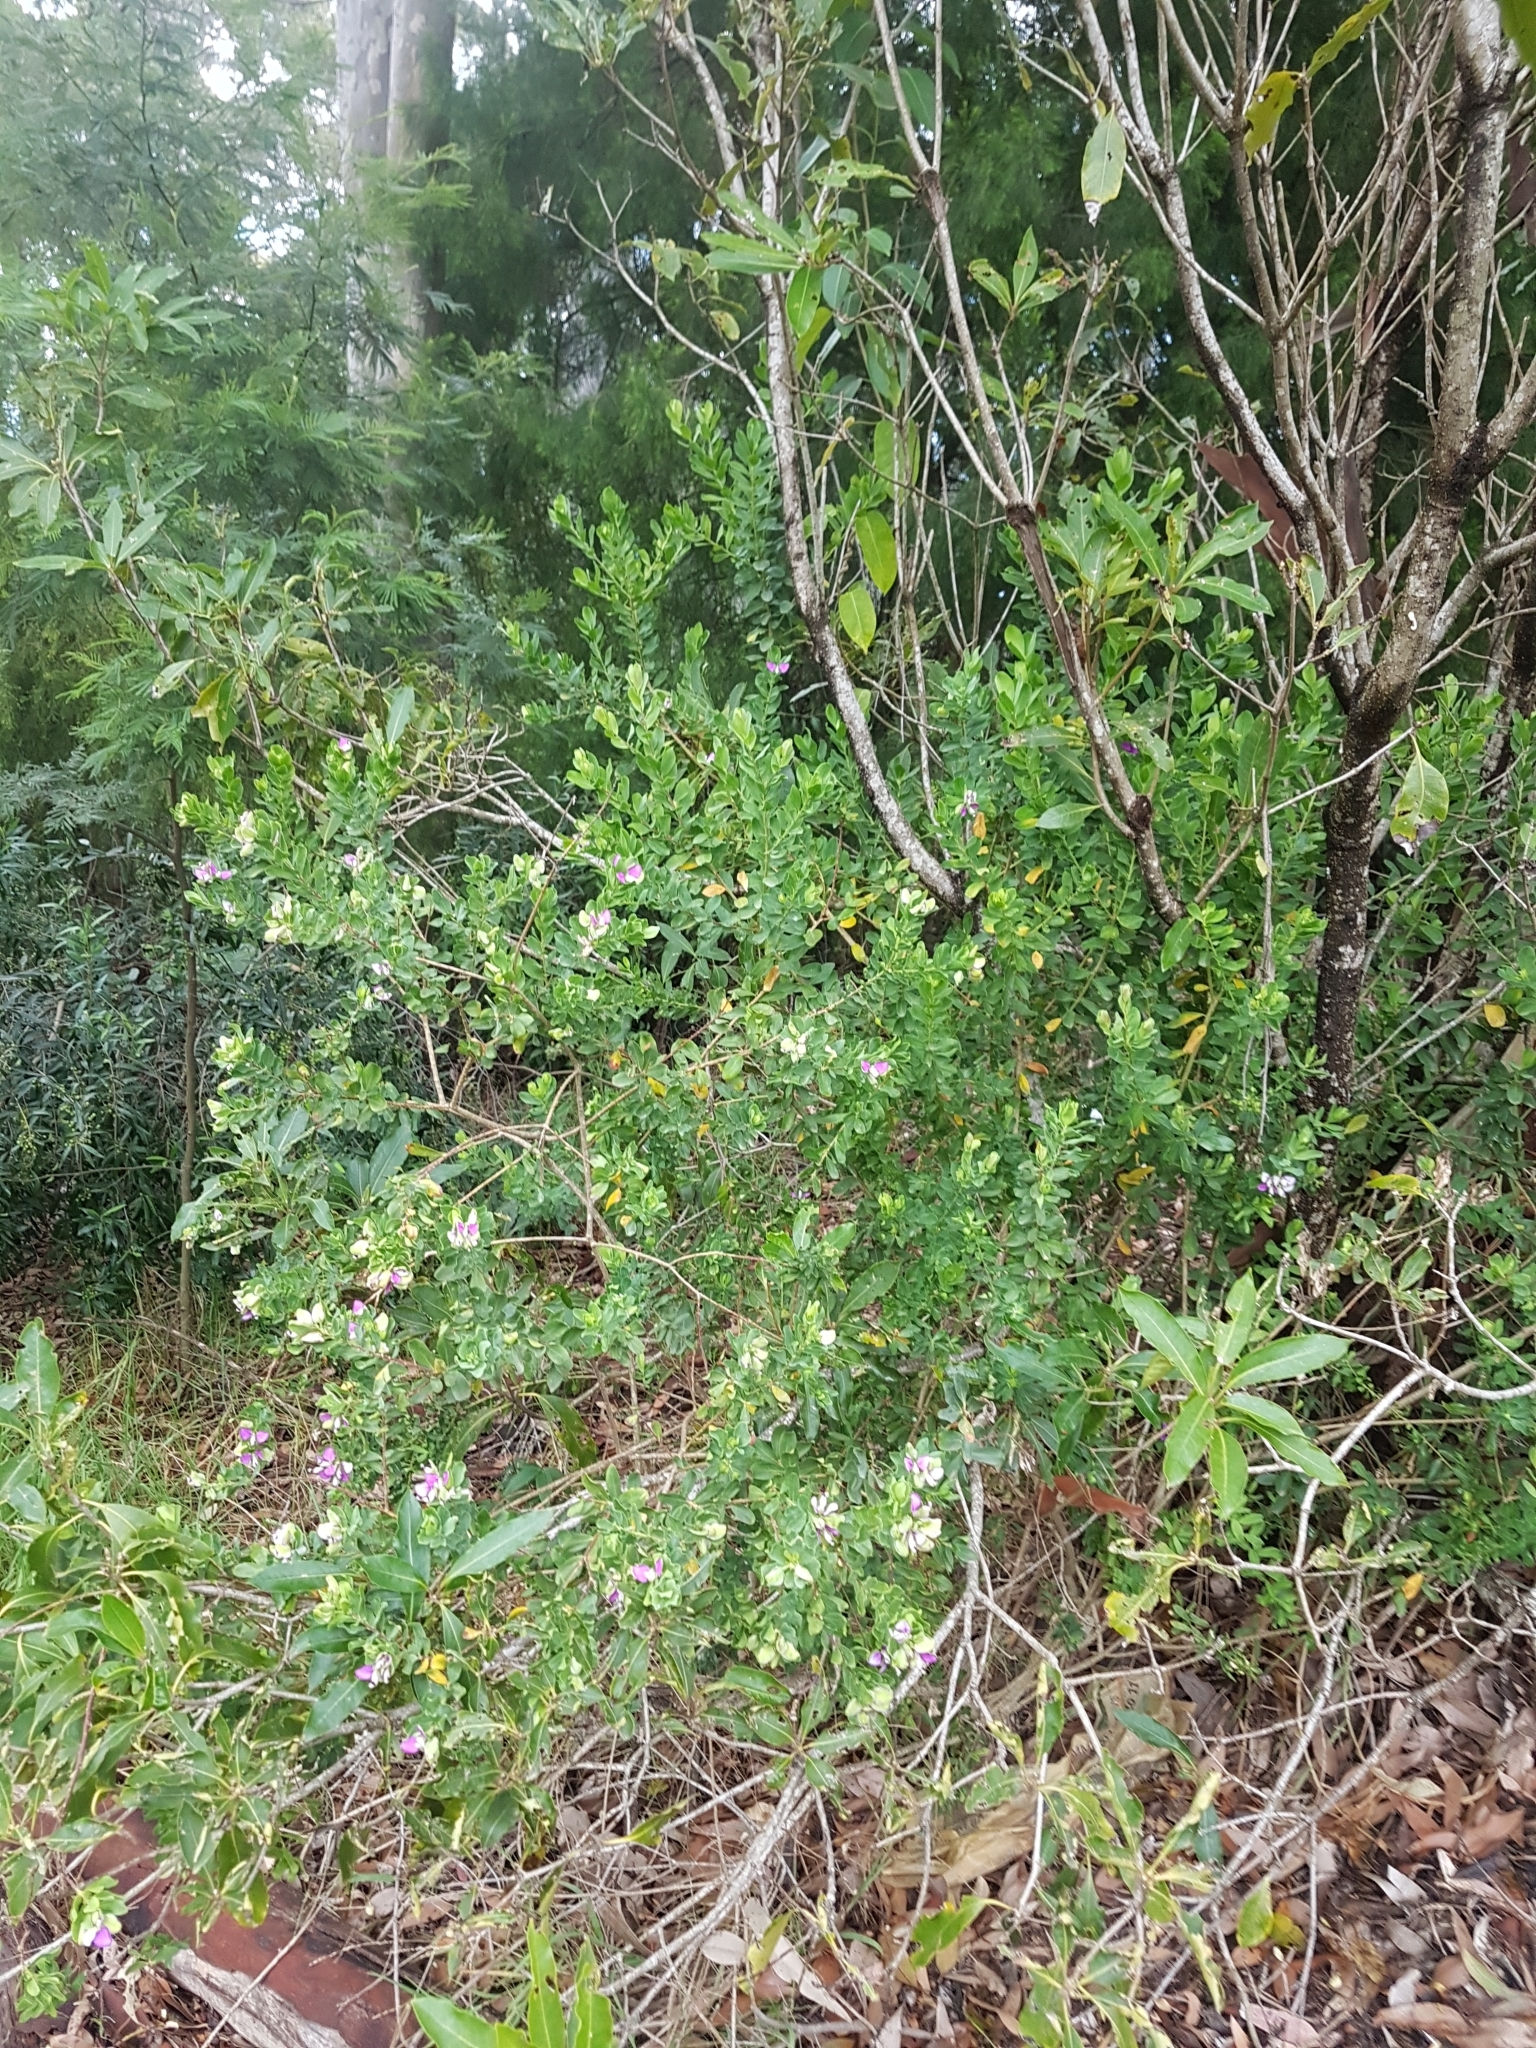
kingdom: Plantae
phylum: Tracheophyta
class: Magnoliopsida
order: Fabales
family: Polygalaceae
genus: Polygala
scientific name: Polygala myrtifolia
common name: Myrtle-leaf milkwort
